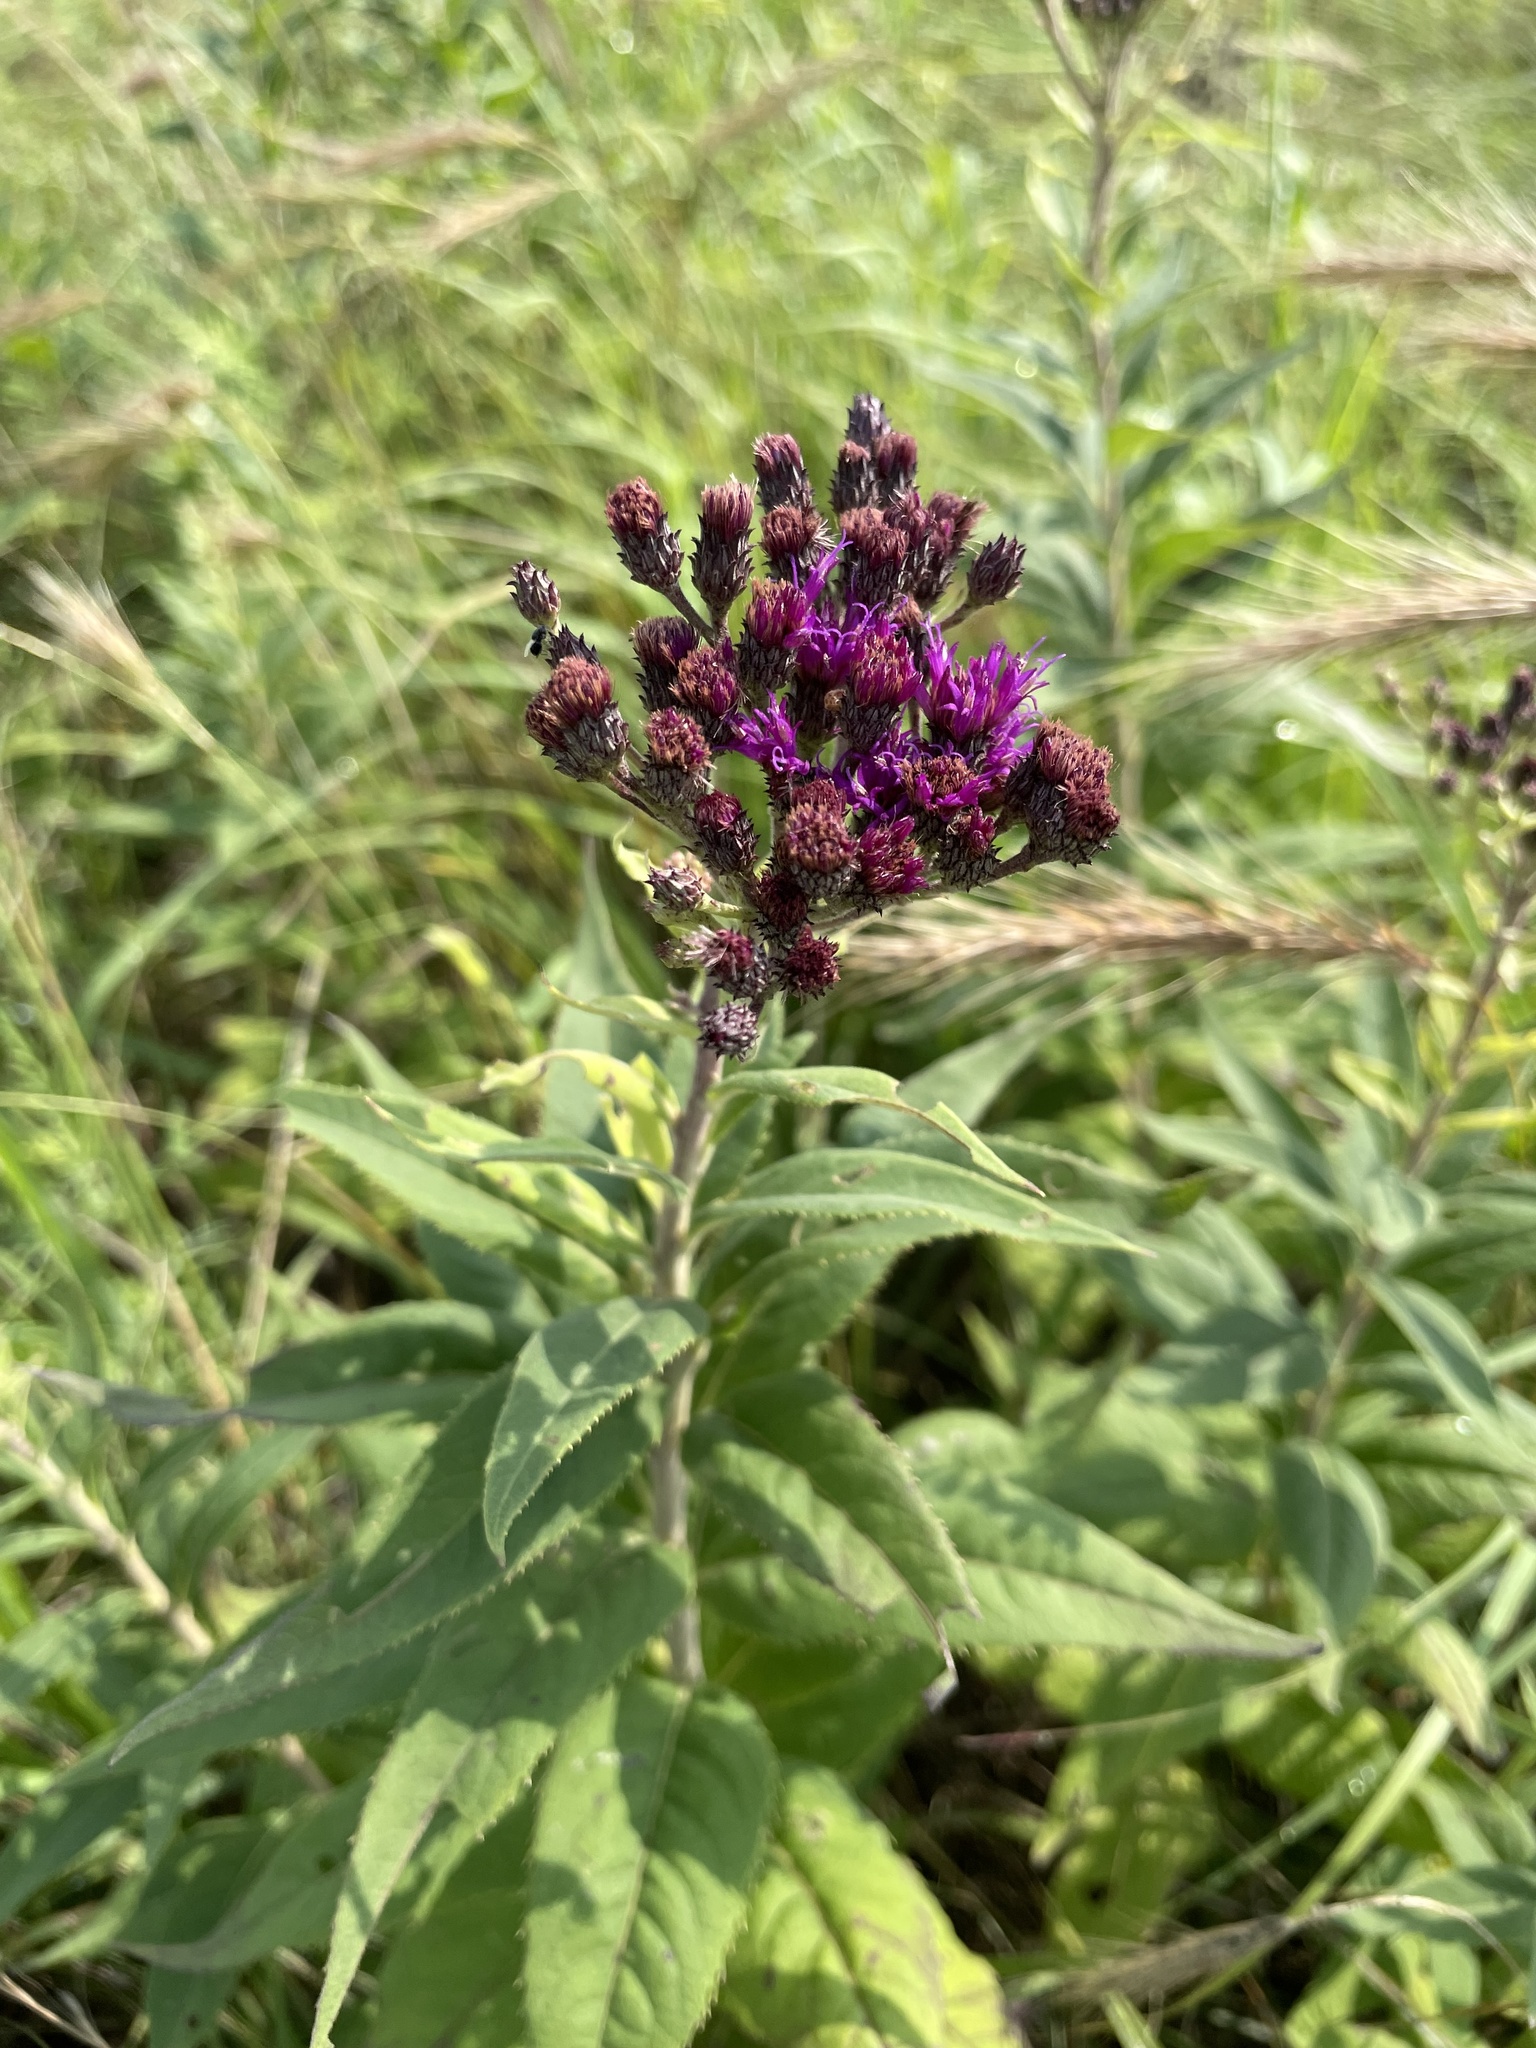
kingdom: Plantae
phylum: Tracheophyta
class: Magnoliopsida
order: Asterales
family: Asteraceae
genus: Vernonia
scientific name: Vernonia baldwinii
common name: Western ironweed
